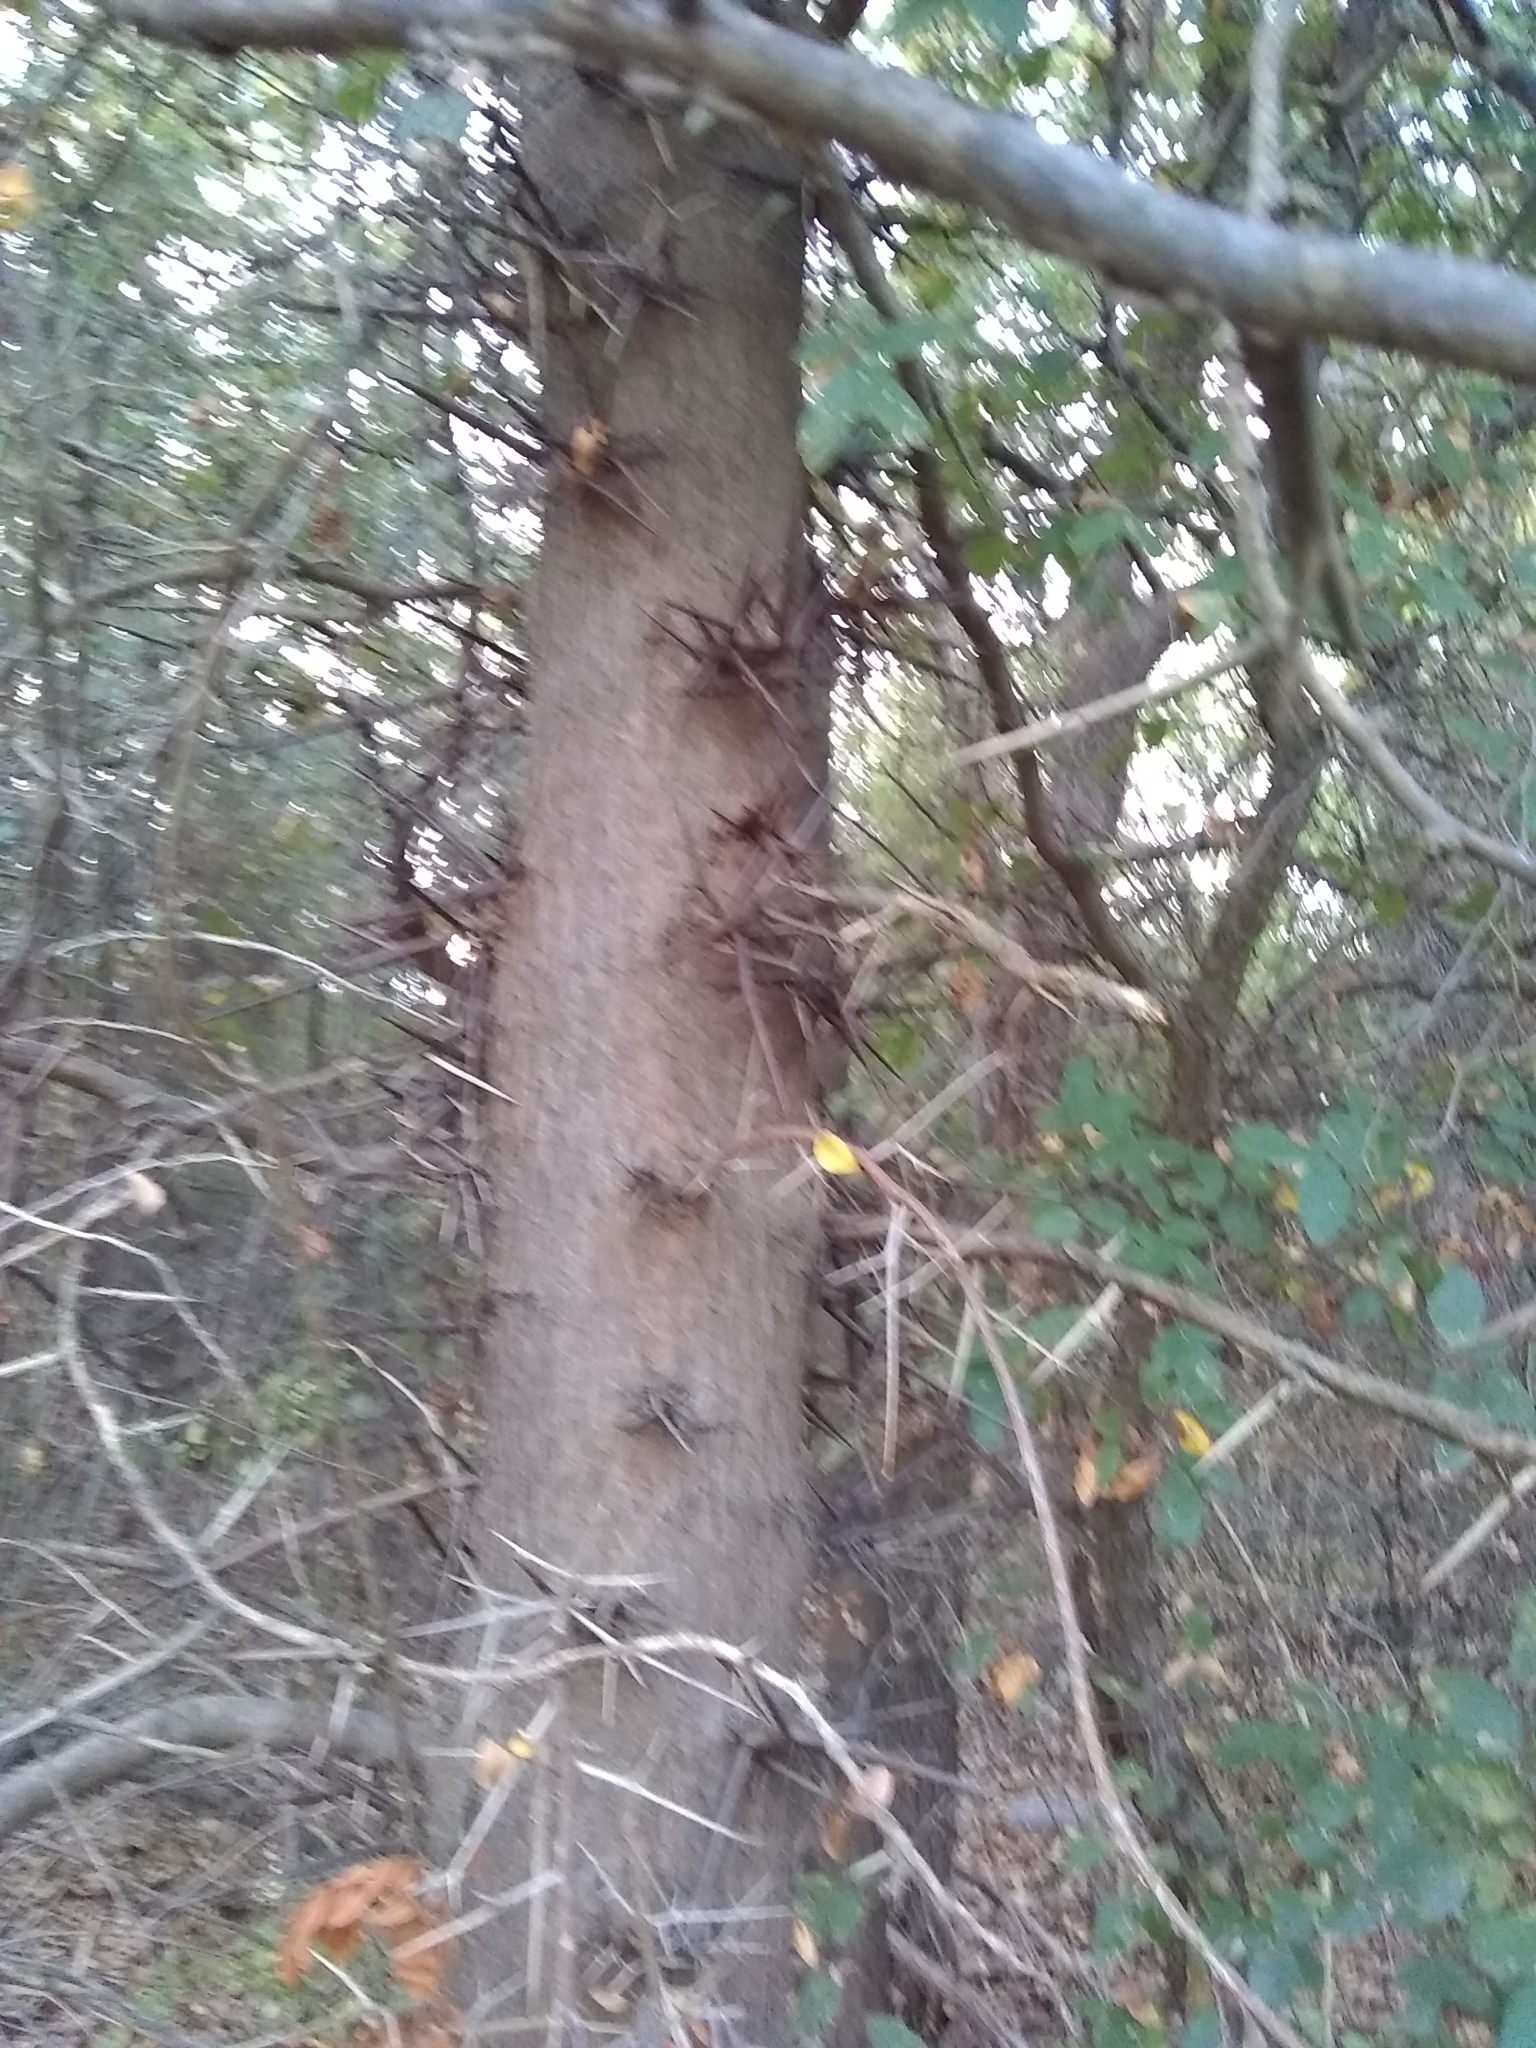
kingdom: Plantae
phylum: Tracheophyta
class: Magnoliopsida
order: Fabales
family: Fabaceae
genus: Gleditsia
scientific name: Gleditsia triacanthos
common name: Common honeylocust
